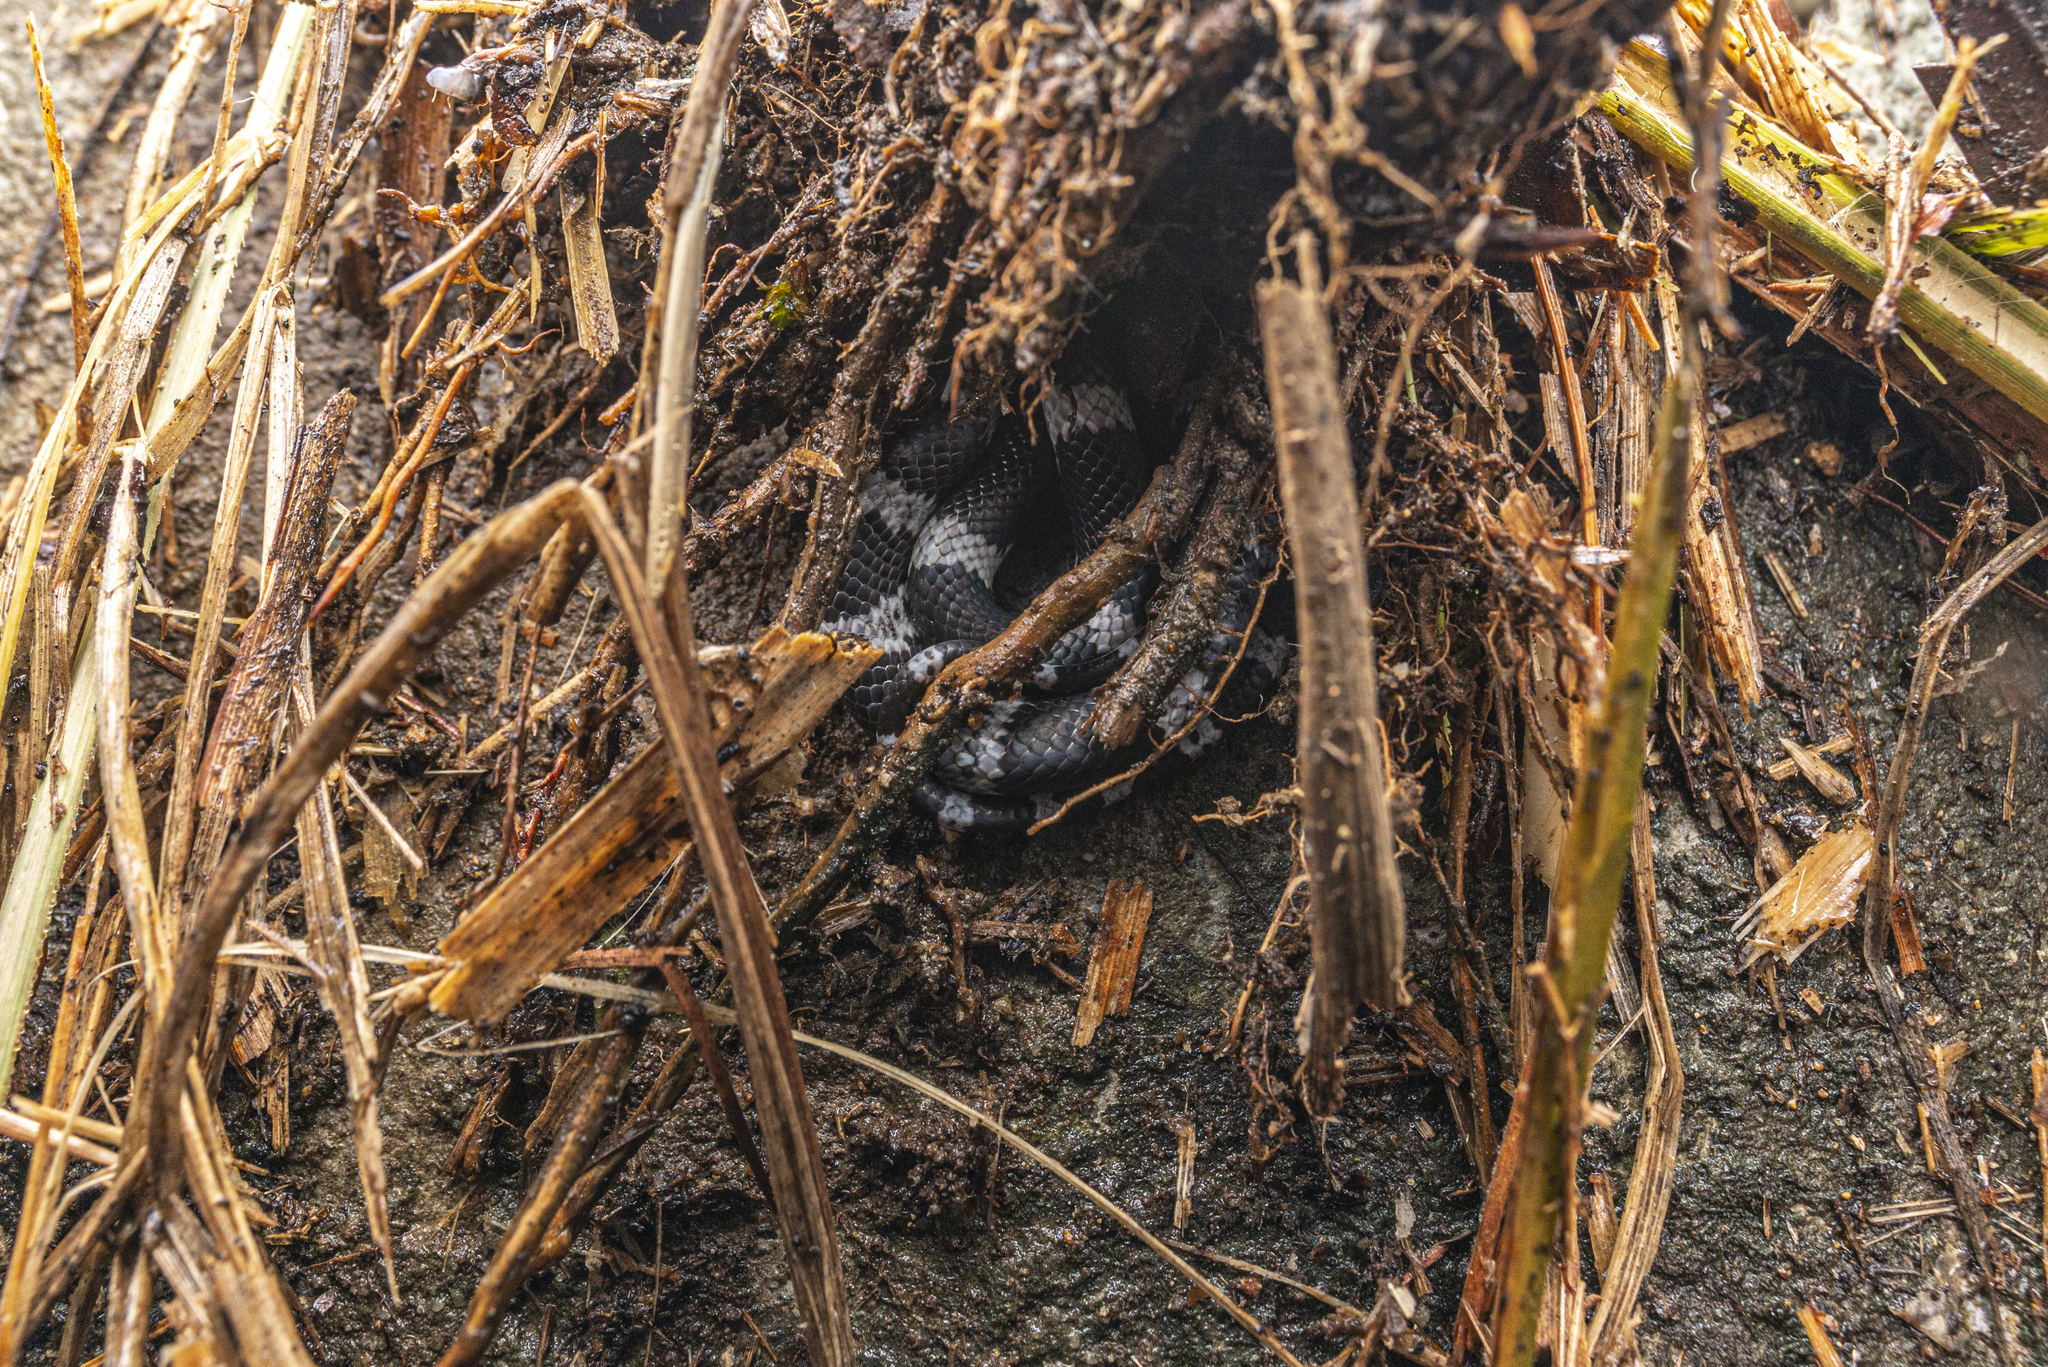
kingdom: Animalia
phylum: Chordata
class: Squamata
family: Colubridae
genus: Lycodon
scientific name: Lycodon futsingensis
